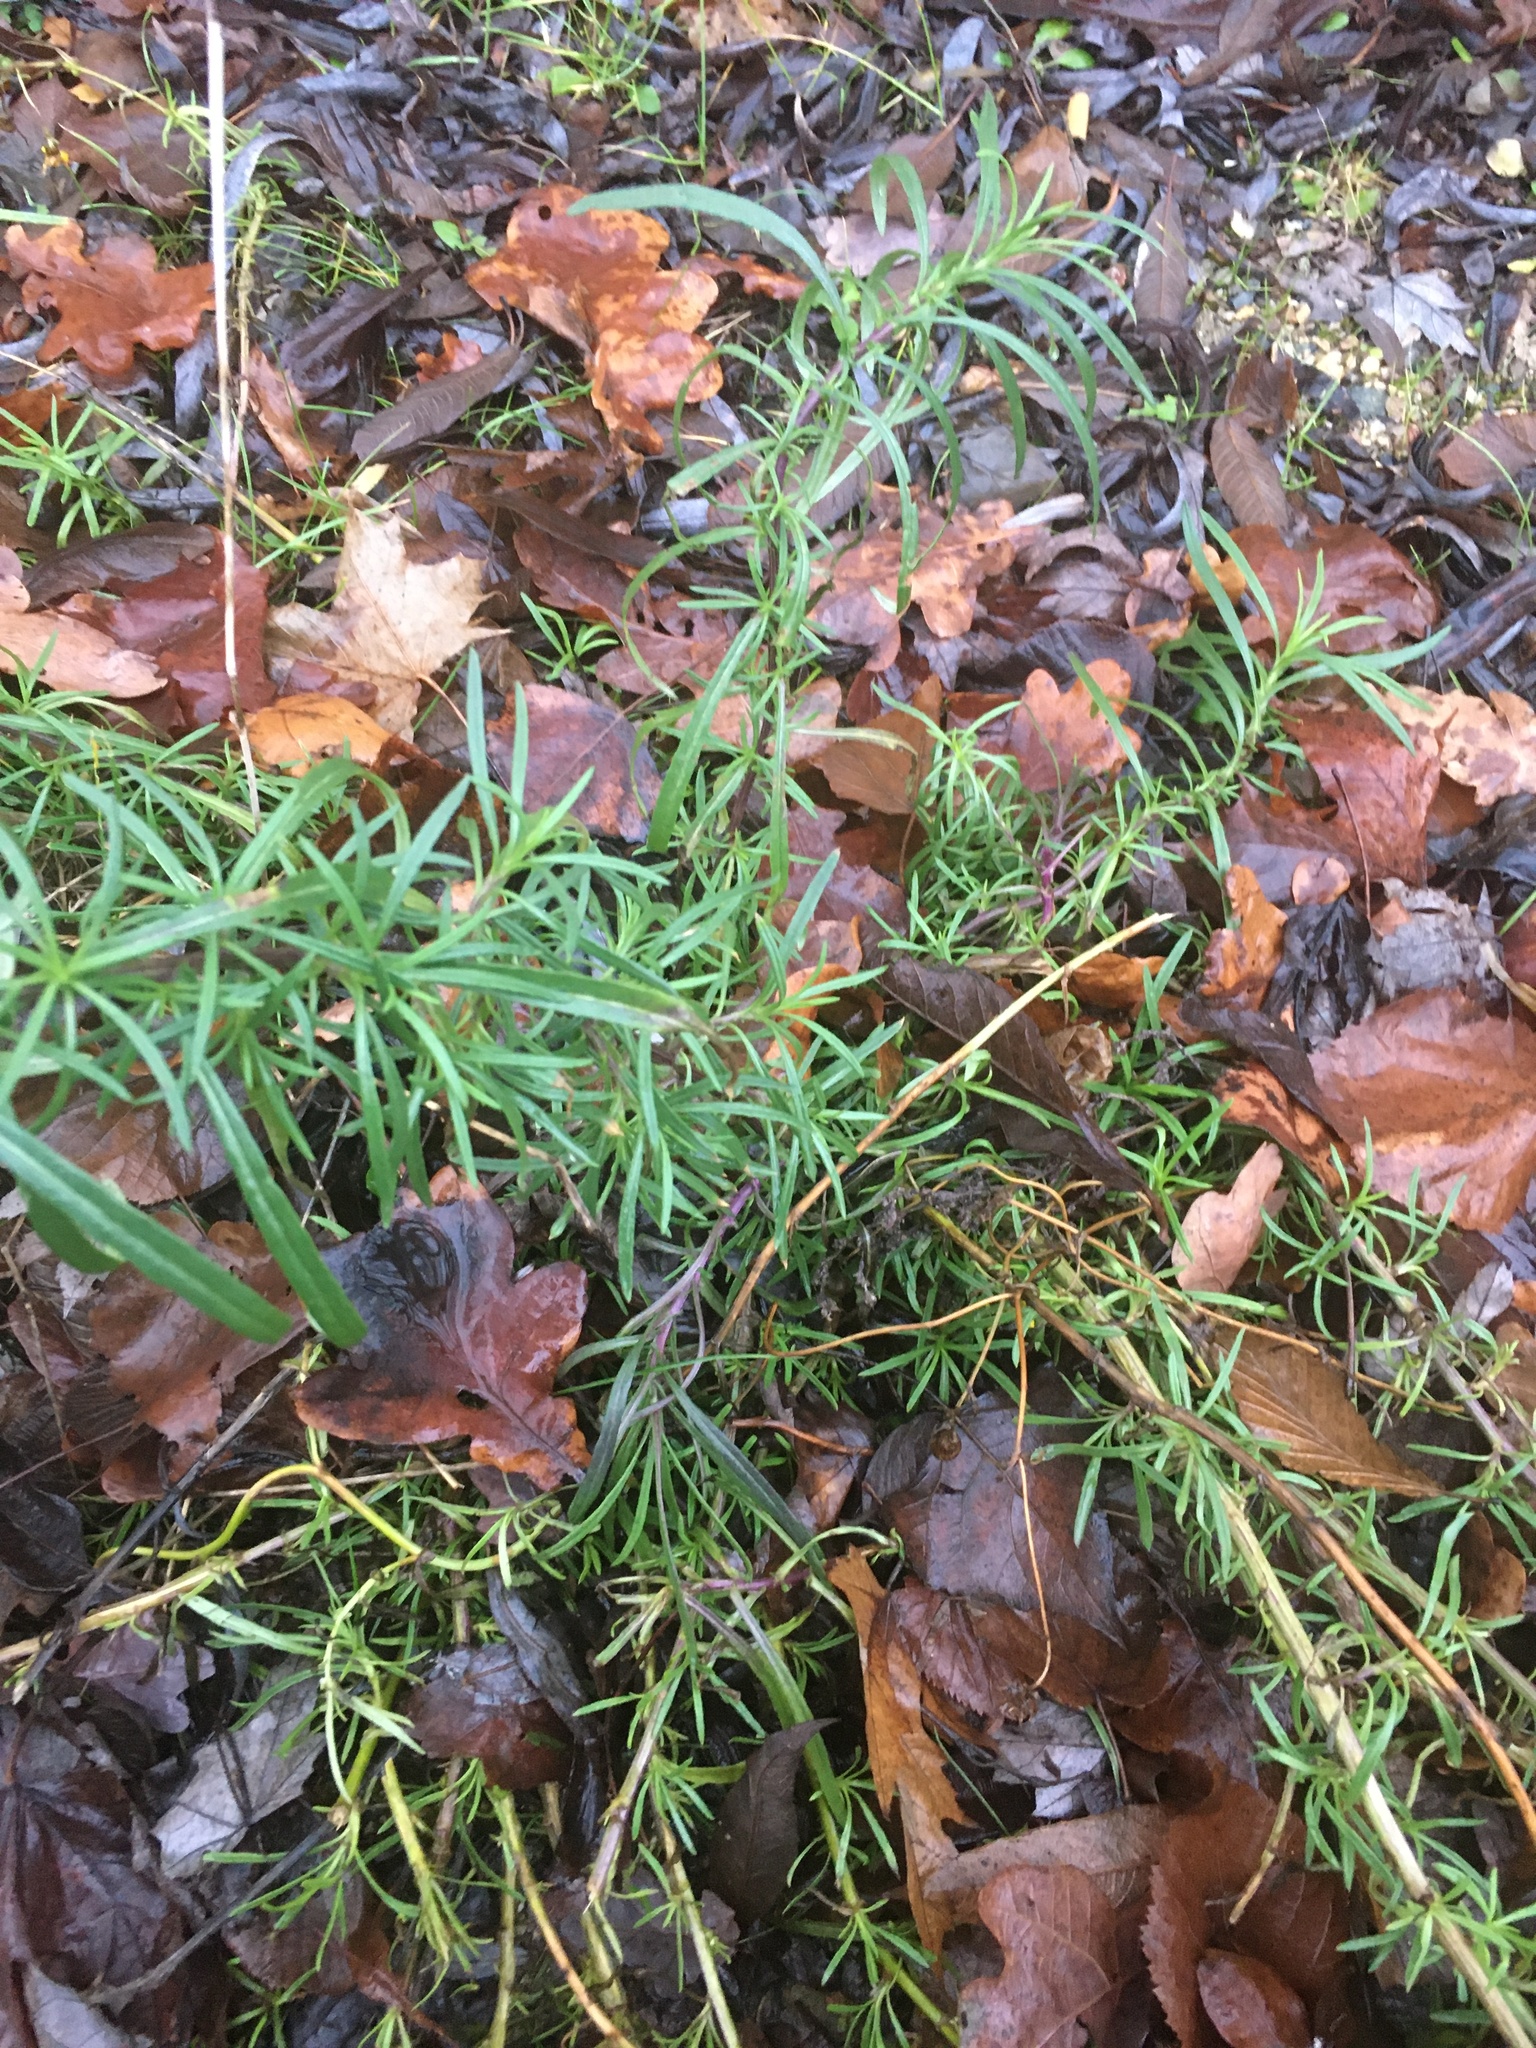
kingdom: Plantae
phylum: Tracheophyta
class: Magnoliopsida
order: Asterales
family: Asteraceae
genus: Senecio
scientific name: Senecio inaequidens
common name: Narrow-leaved ragwort
